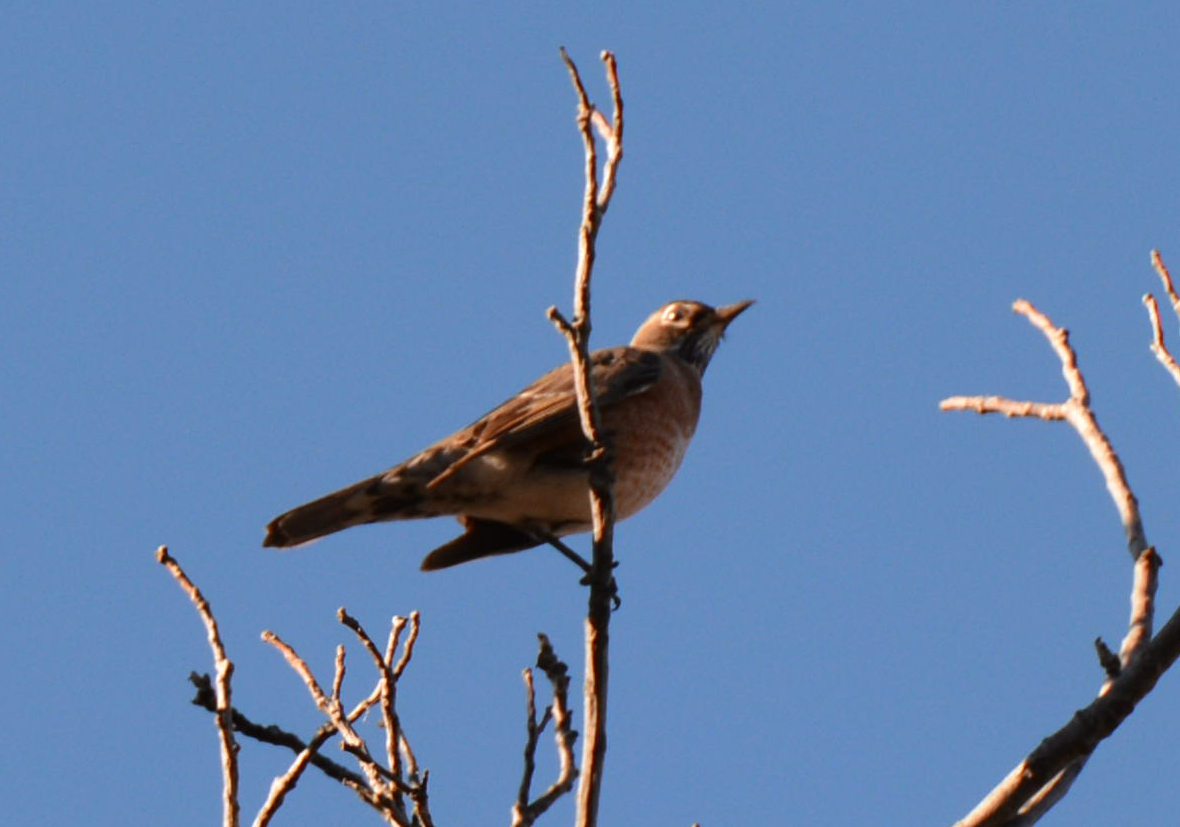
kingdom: Animalia
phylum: Chordata
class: Aves
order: Passeriformes
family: Turdidae
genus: Turdus
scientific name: Turdus migratorius
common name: American robin
